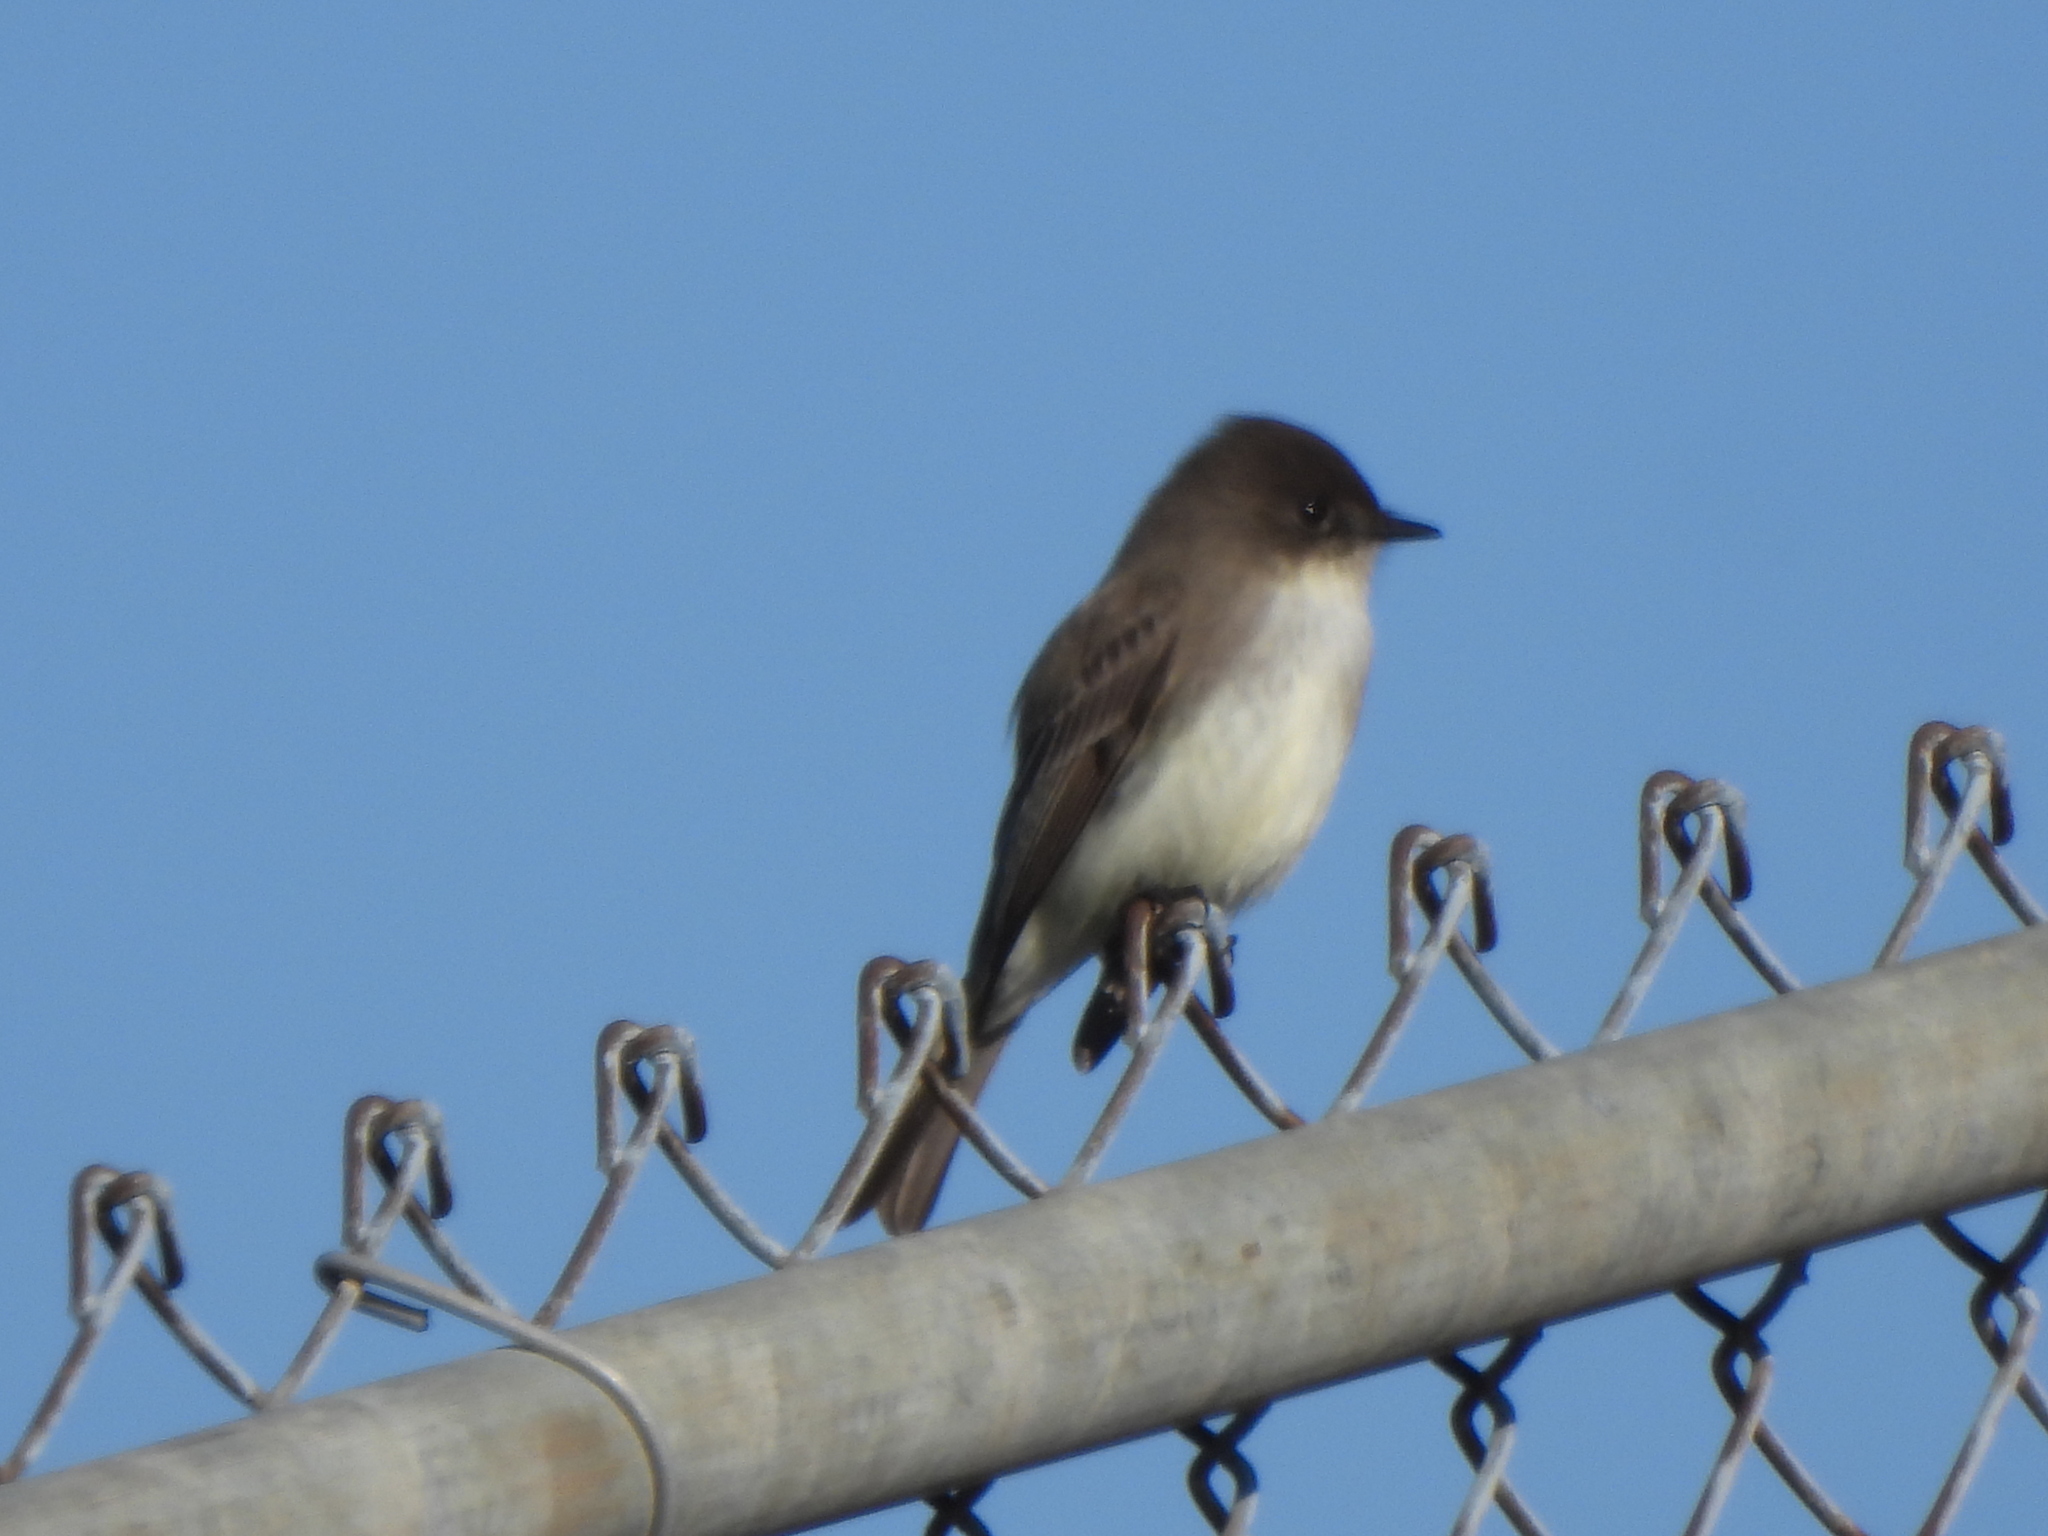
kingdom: Animalia
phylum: Chordata
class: Aves
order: Passeriformes
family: Tyrannidae
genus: Sayornis
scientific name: Sayornis phoebe
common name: Eastern phoebe
